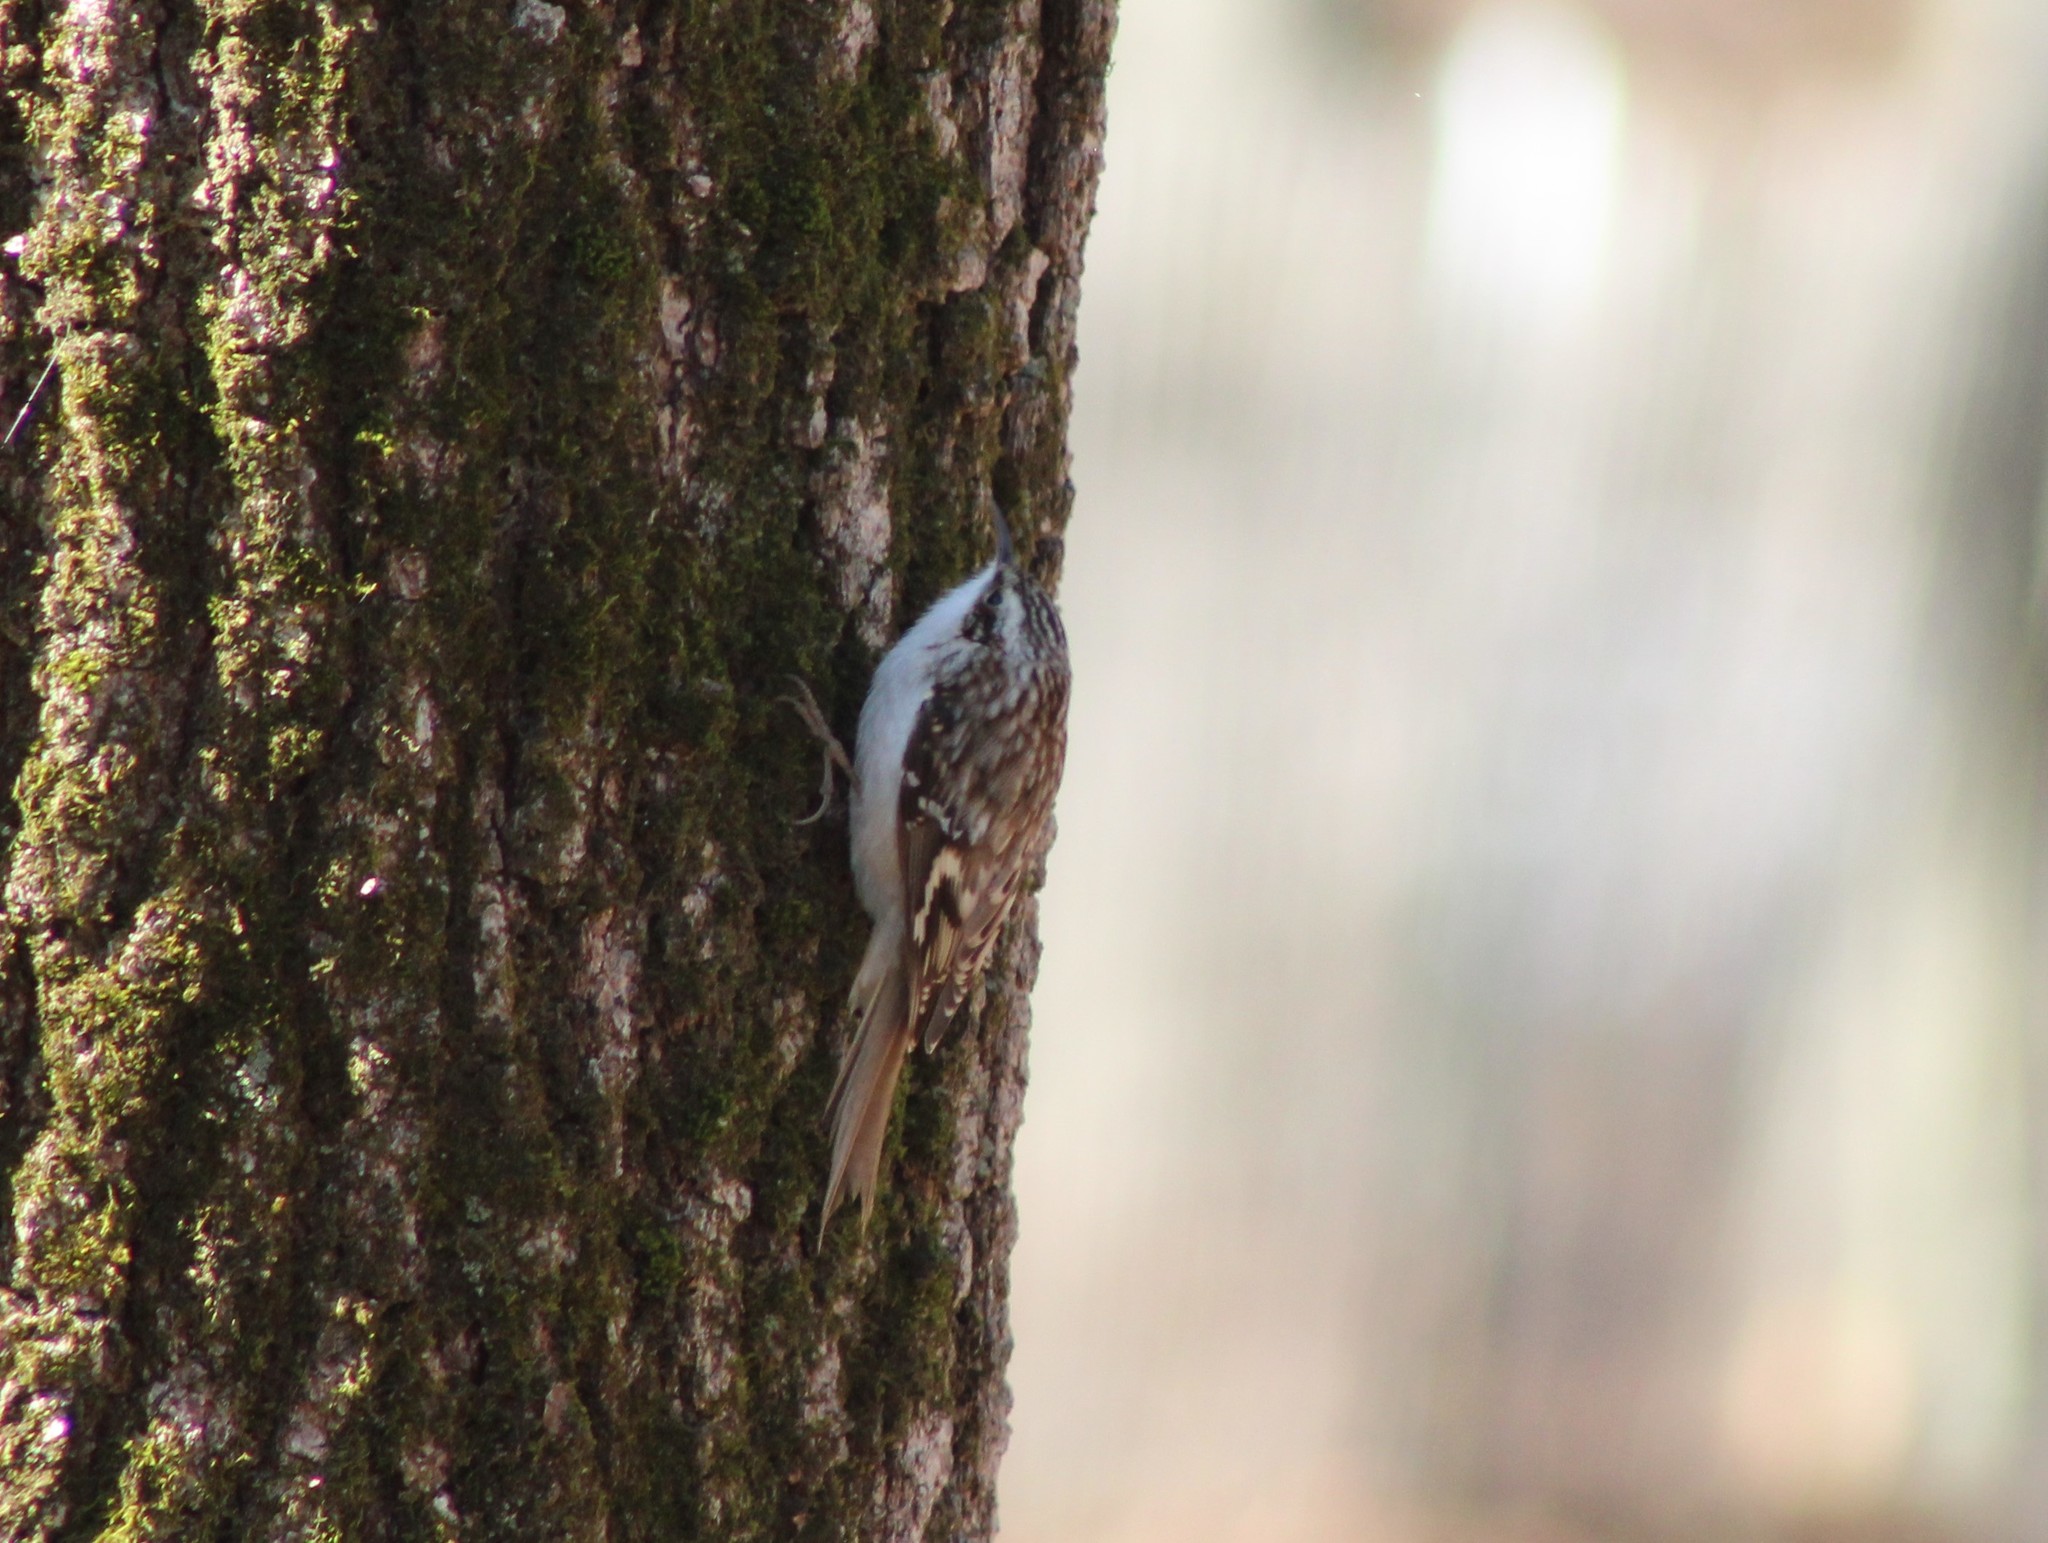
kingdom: Animalia
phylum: Chordata
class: Aves
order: Passeriformes
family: Certhiidae
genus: Certhia
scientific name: Certhia americana
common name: Brown creeper
